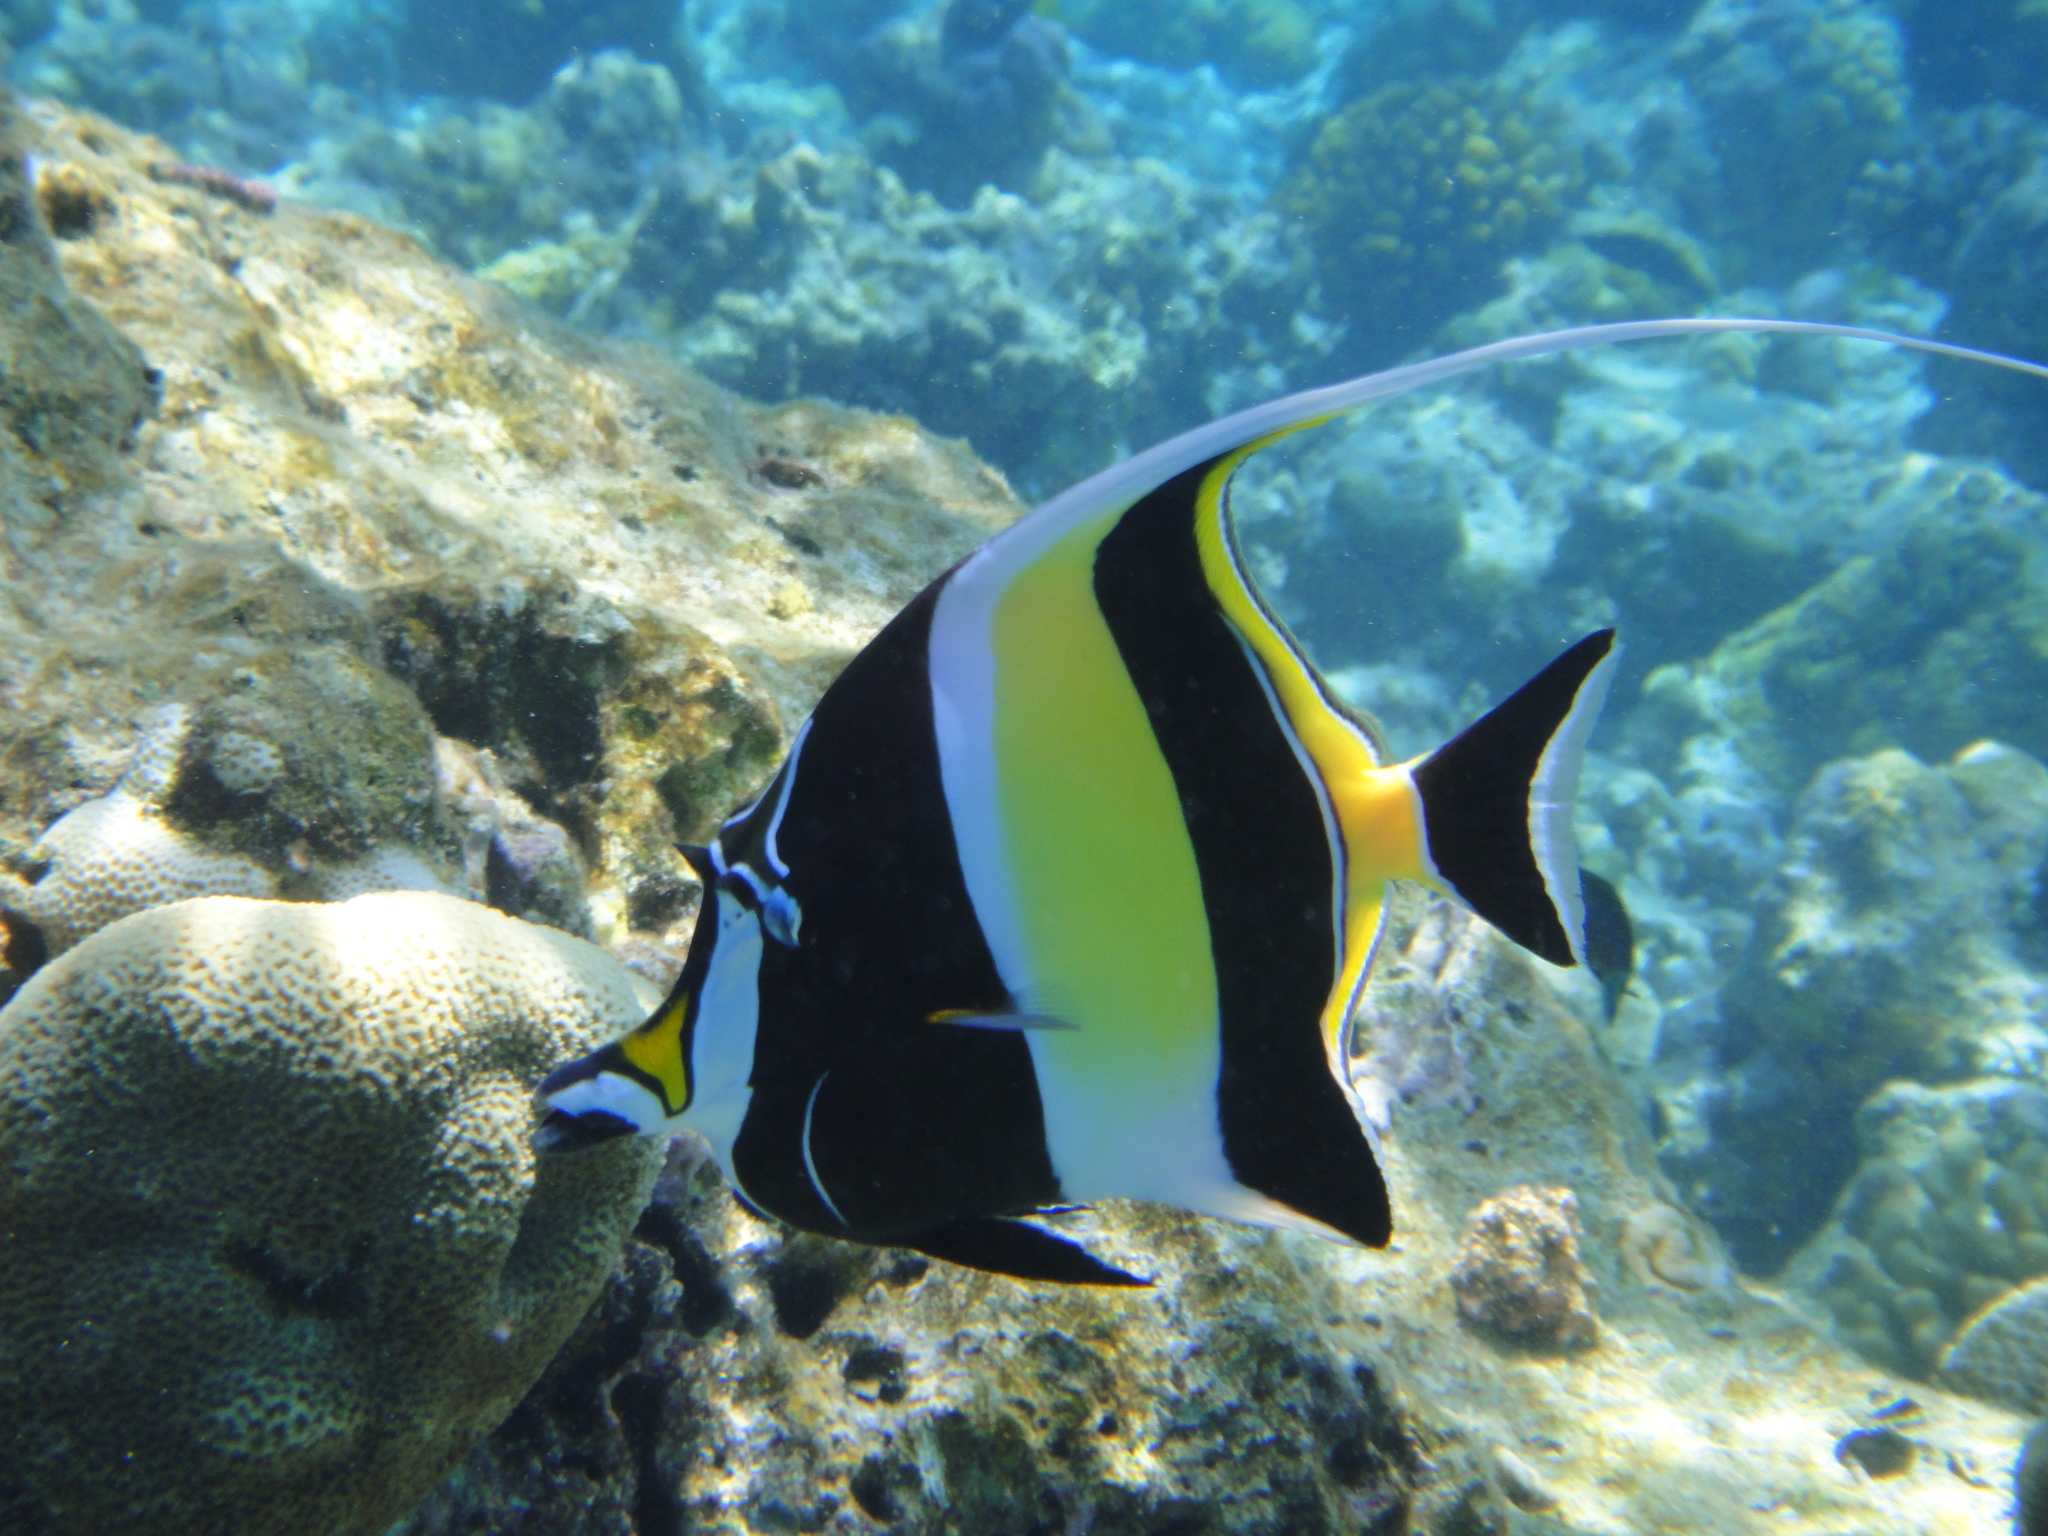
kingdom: Animalia
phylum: Chordata
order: Perciformes
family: Zanclidae
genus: Zanclus
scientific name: Zanclus cornutus
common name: Moorish idol
